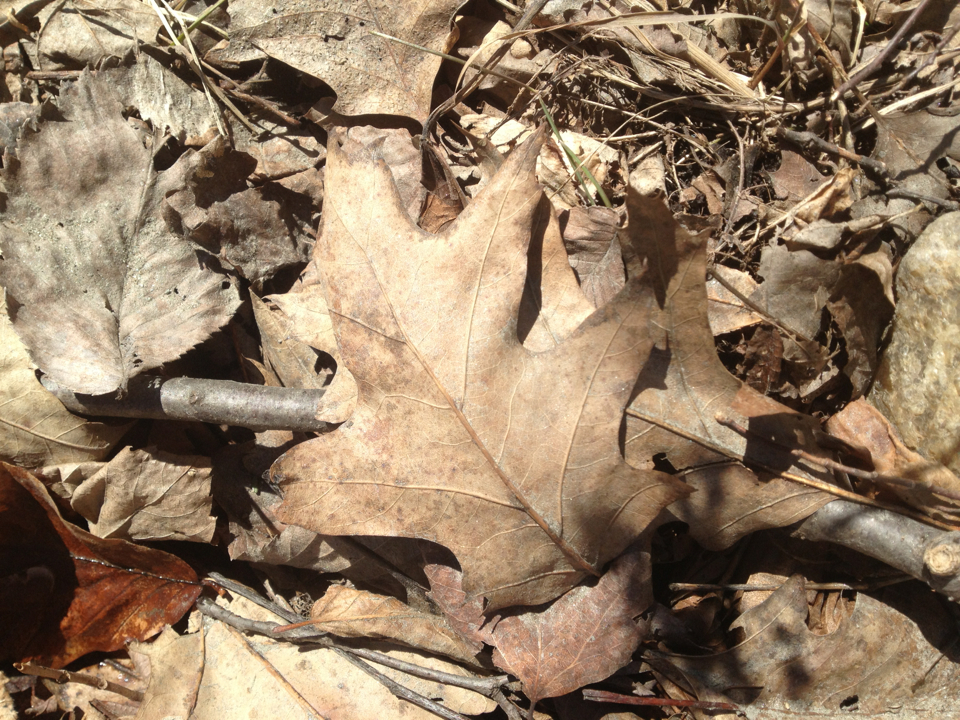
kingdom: Plantae
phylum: Tracheophyta
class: Magnoliopsida
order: Fagales
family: Fagaceae
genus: Quercus
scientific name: Quercus rubra
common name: Red oak
